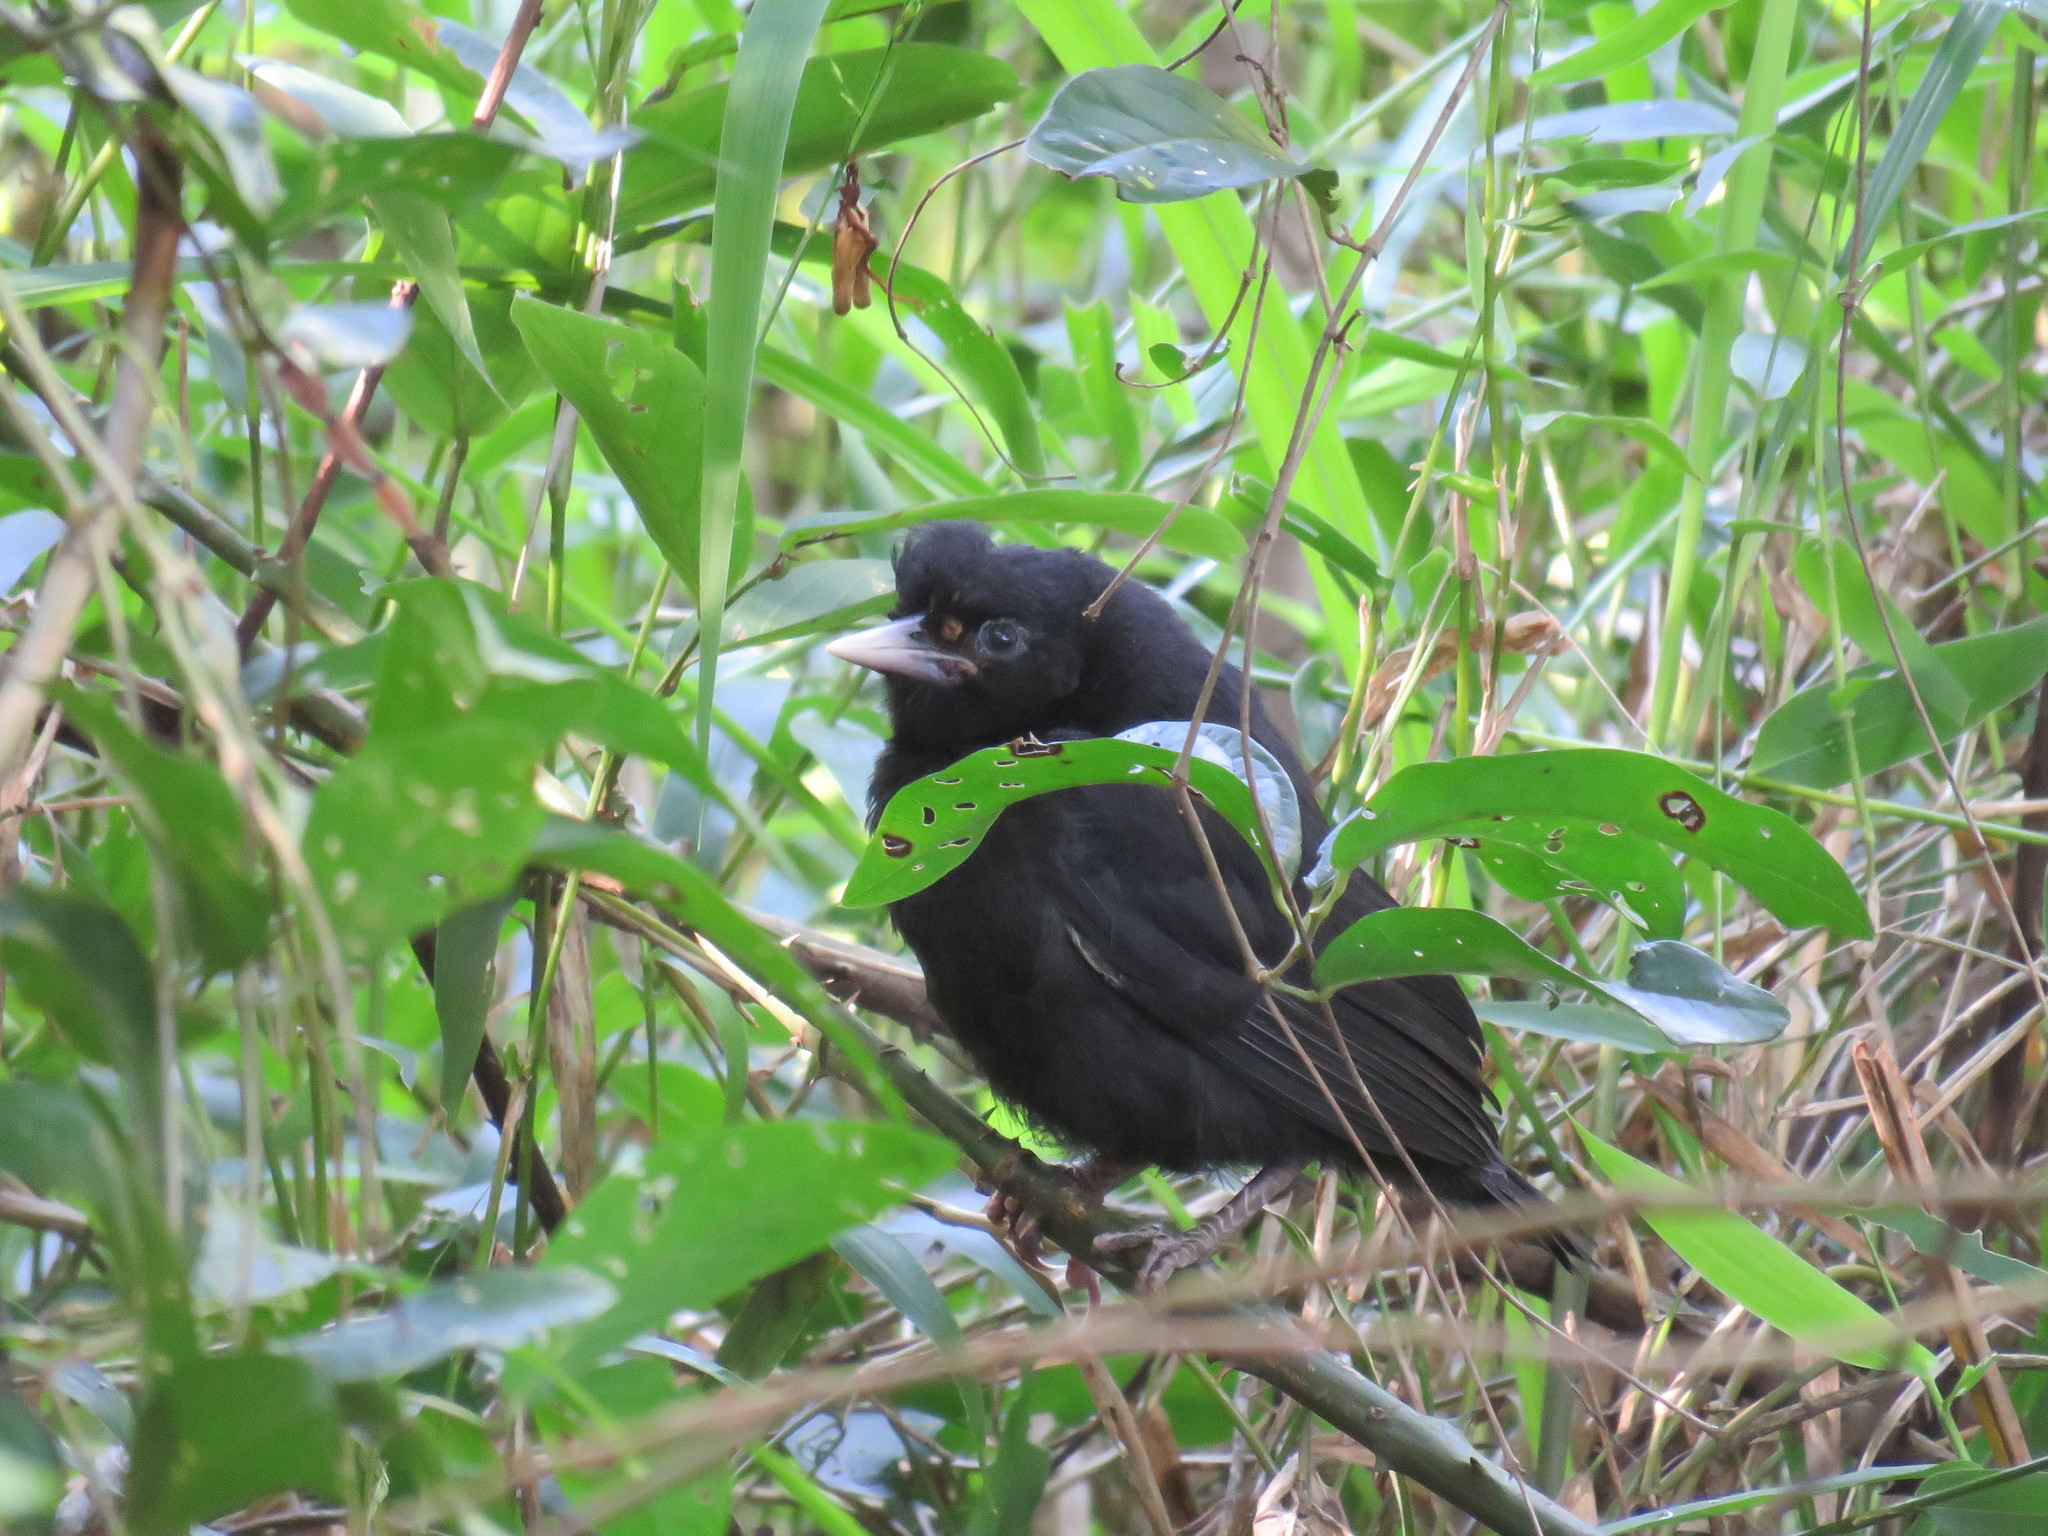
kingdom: Animalia
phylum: Chordata
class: Aves
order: Passeriformes
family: Icteridae
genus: Cacicus
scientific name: Cacicus solitarius
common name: Solitary cacique
